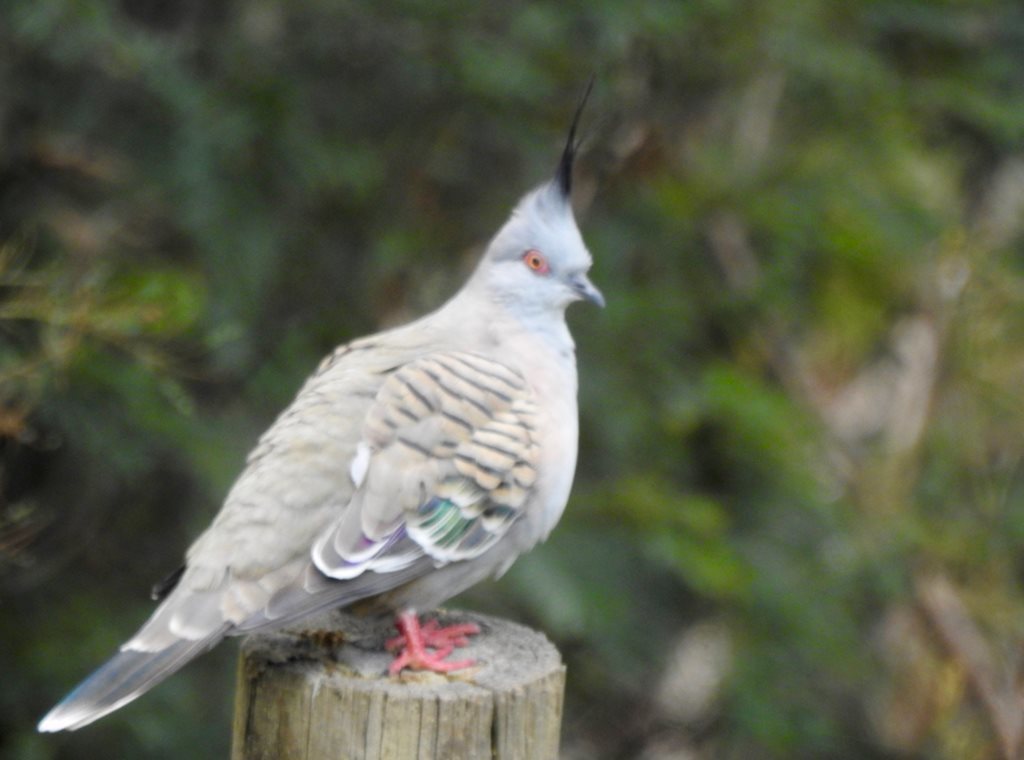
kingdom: Animalia
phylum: Chordata
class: Aves
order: Columbiformes
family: Columbidae
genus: Ocyphaps
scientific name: Ocyphaps lophotes
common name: Crested pigeon
